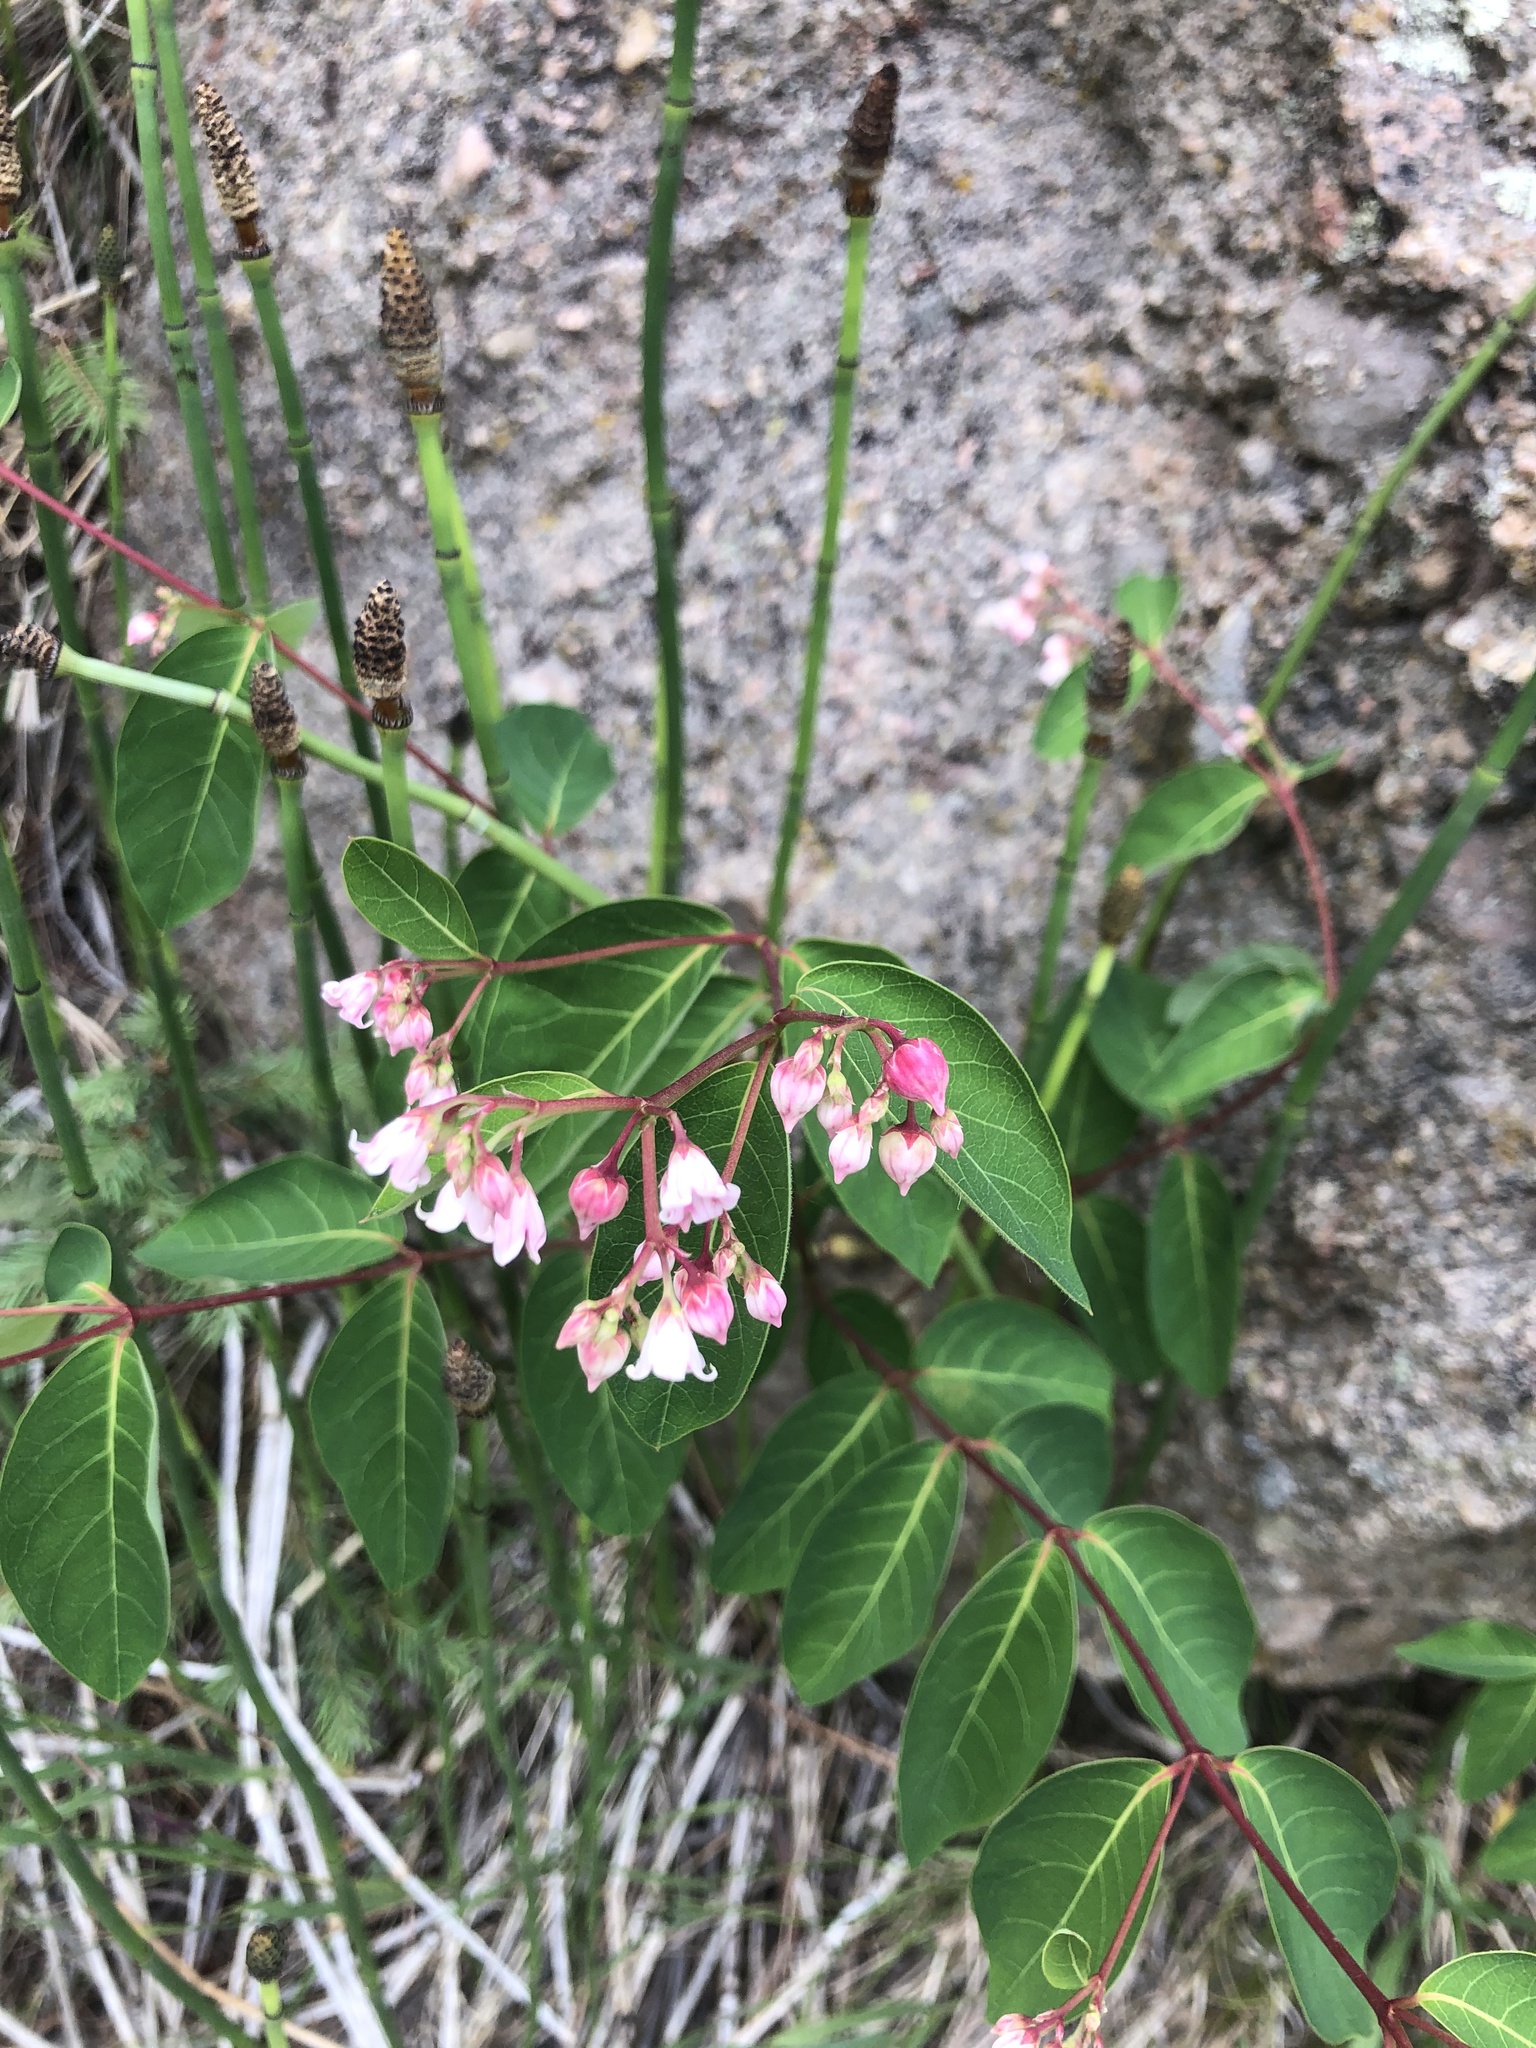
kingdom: Plantae
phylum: Tracheophyta
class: Magnoliopsida
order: Gentianales
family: Apocynaceae
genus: Apocynum
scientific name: Apocynum androsaemifolium
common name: Spreading dogbane
